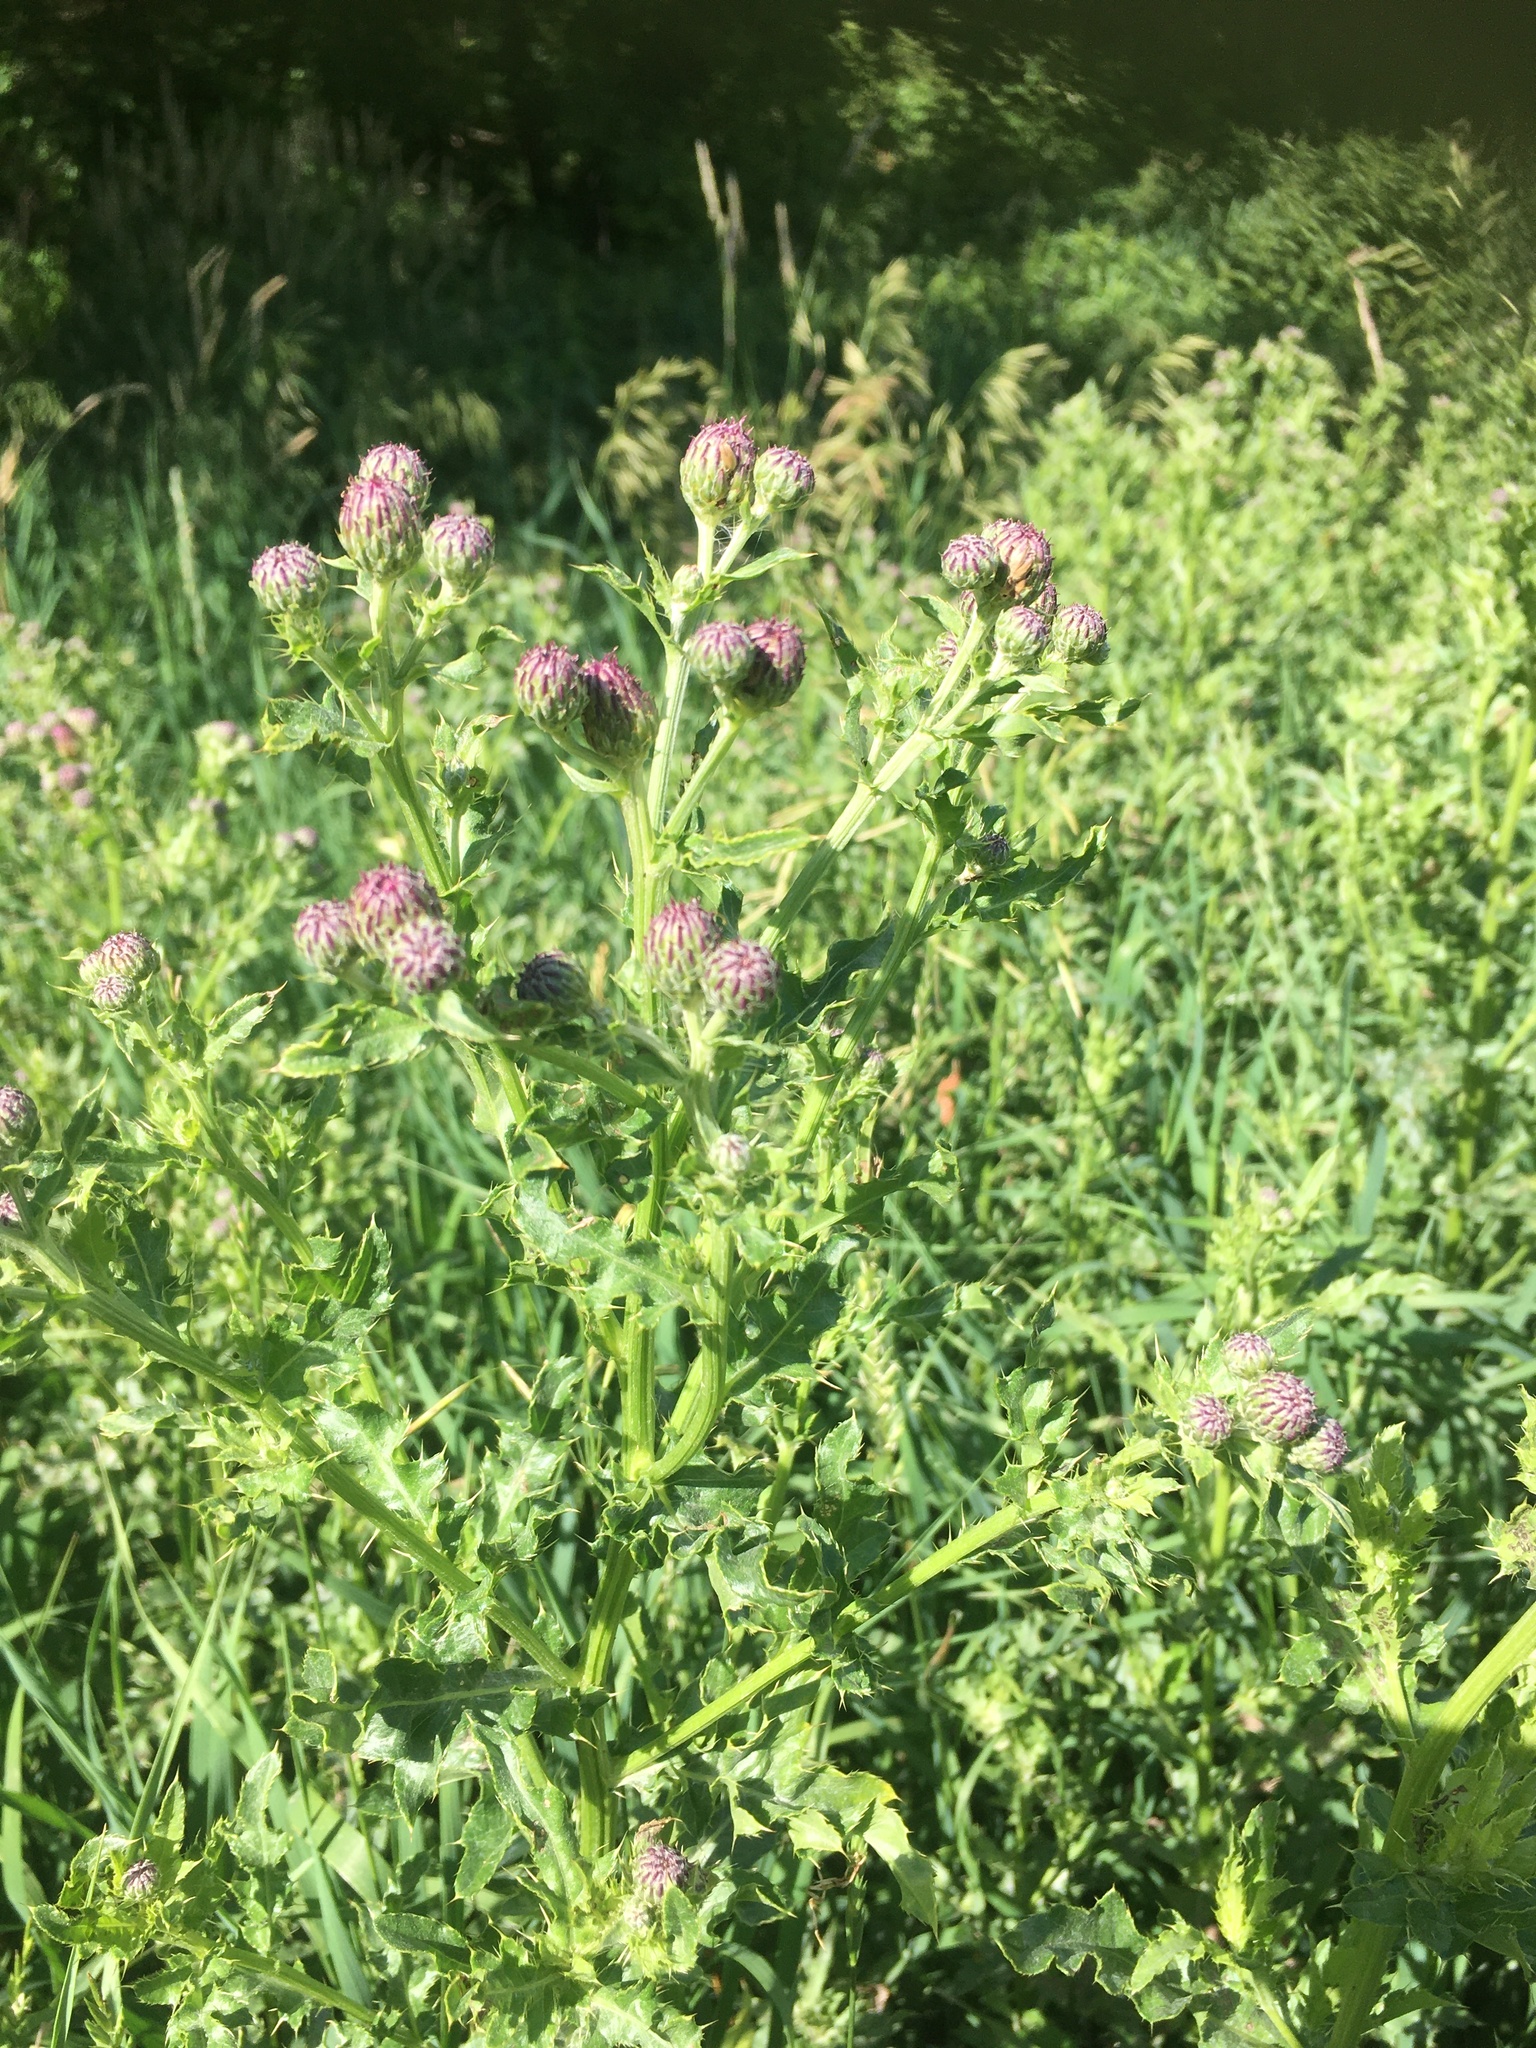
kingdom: Plantae
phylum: Tracheophyta
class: Magnoliopsida
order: Asterales
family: Asteraceae
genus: Cirsium
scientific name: Cirsium vulgare
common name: Bull thistle
